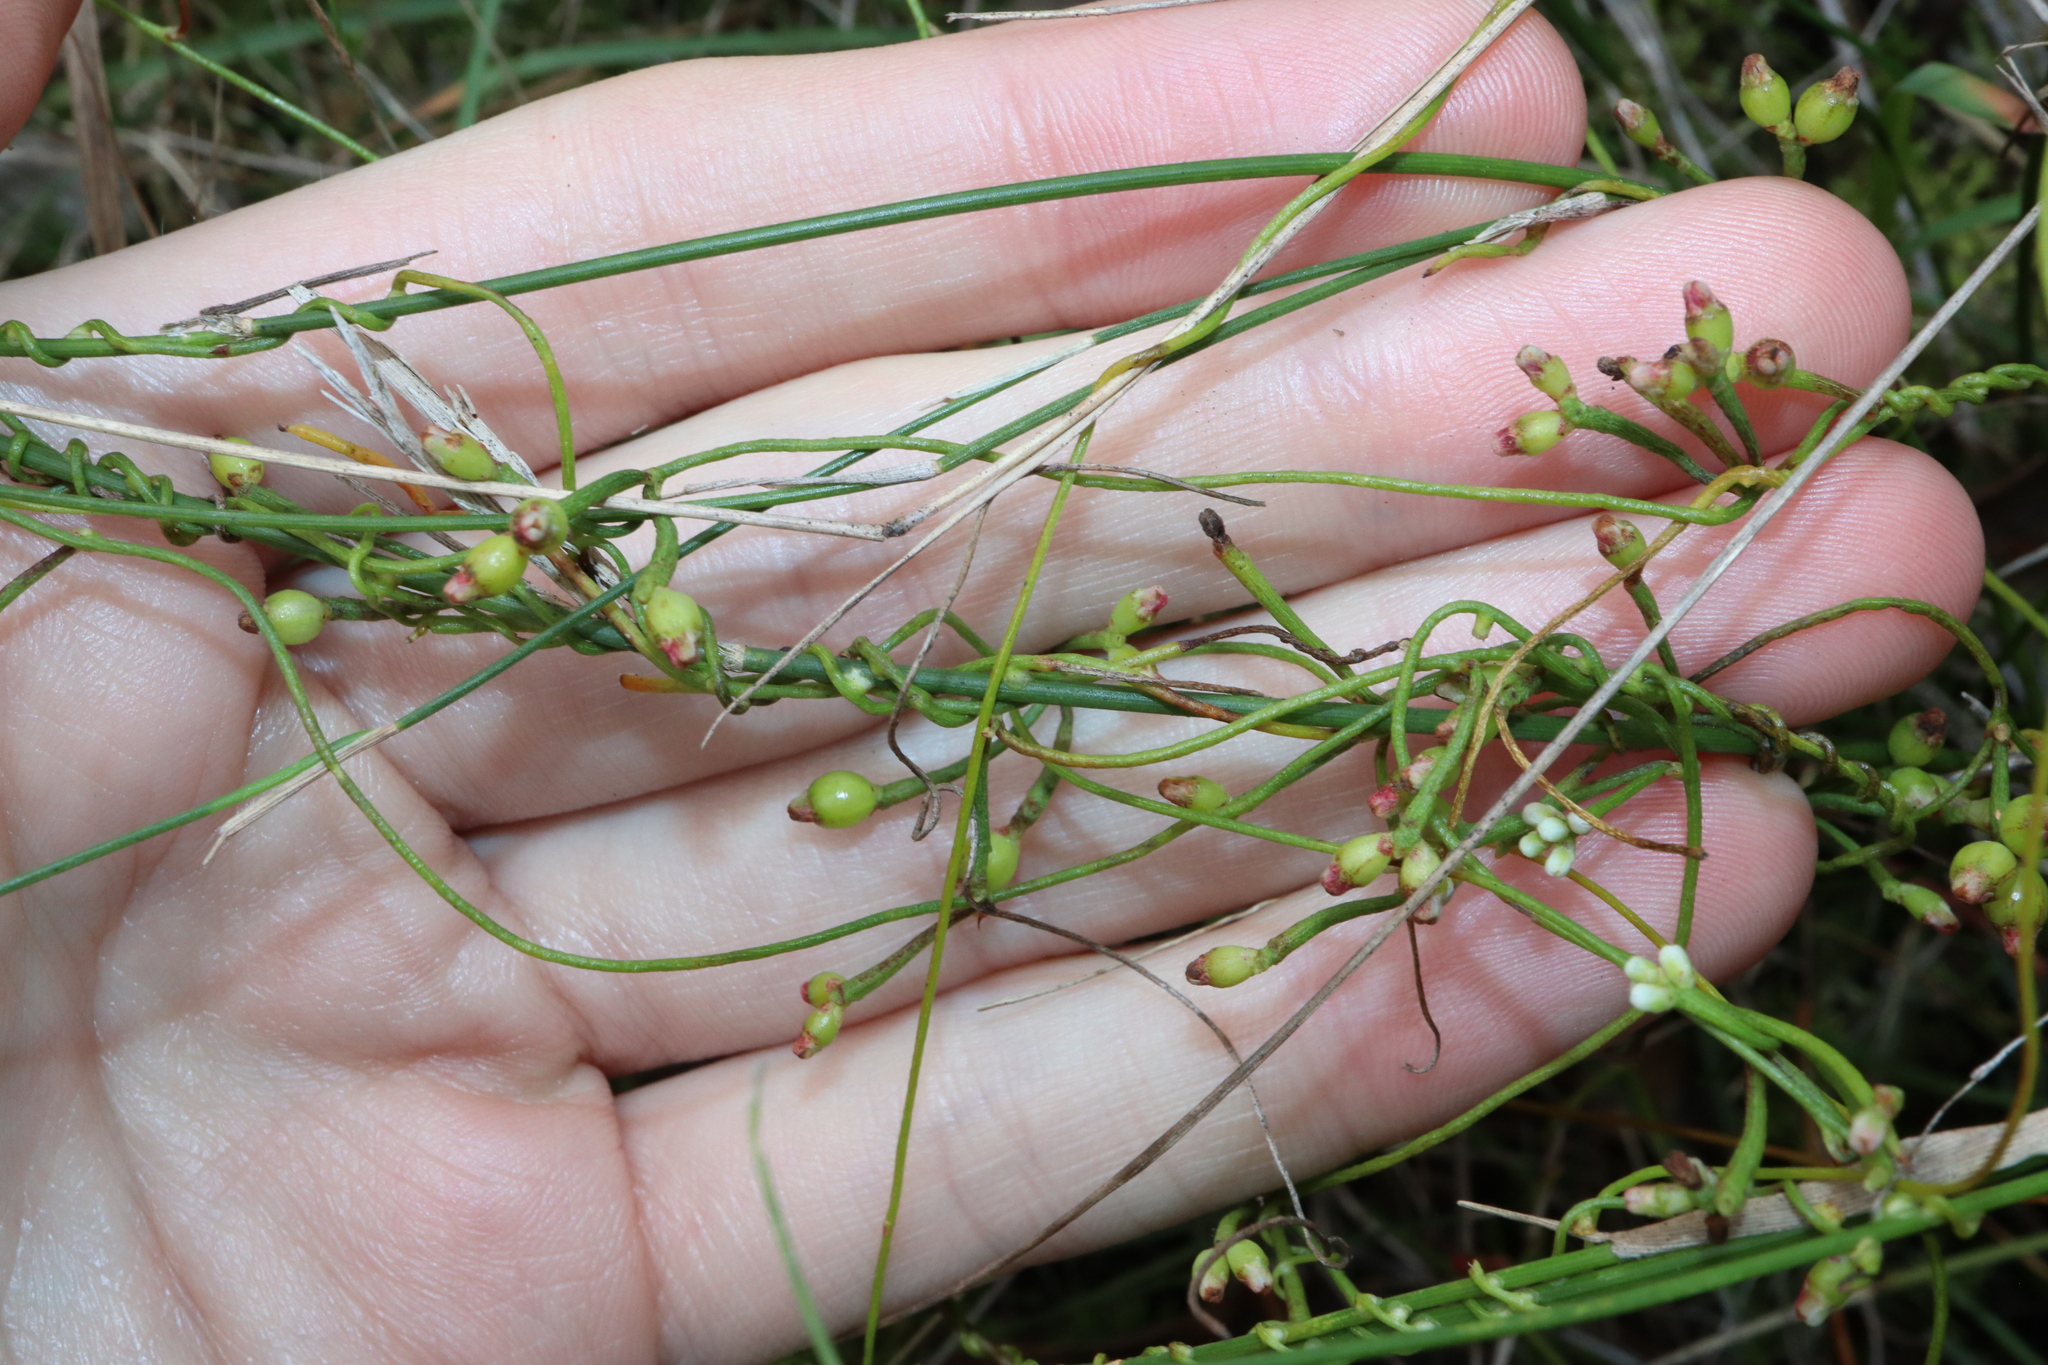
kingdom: Plantae
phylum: Tracheophyta
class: Magnoliopsida
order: Laurales
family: Lauraceae
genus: Cassytha
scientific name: Cassytha glabella
